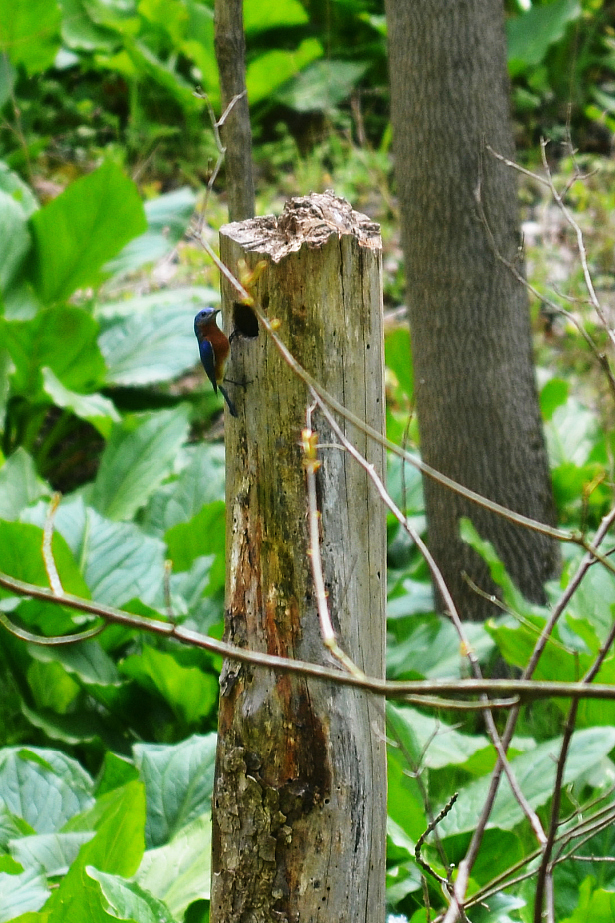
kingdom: Animalia
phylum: Chordata
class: Aves
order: Passeriformes
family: Turdidae
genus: Sialia
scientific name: Sialia sialis
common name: Eastern bluebird
